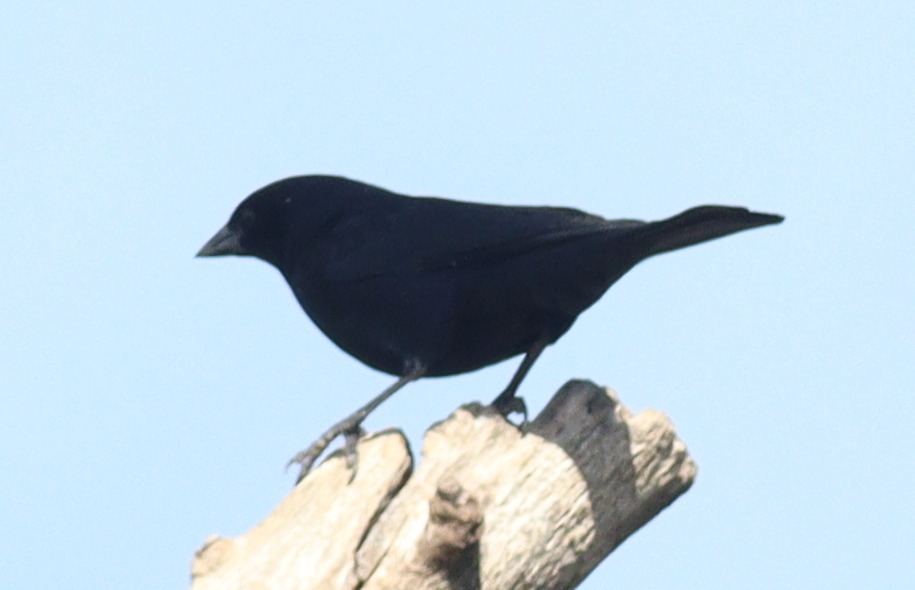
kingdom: Animalia
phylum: Chordata
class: Aves
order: Passeriformes
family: Icteridae
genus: Molothrus
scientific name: Molothrus bonariensis
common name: Shiny cowbird
